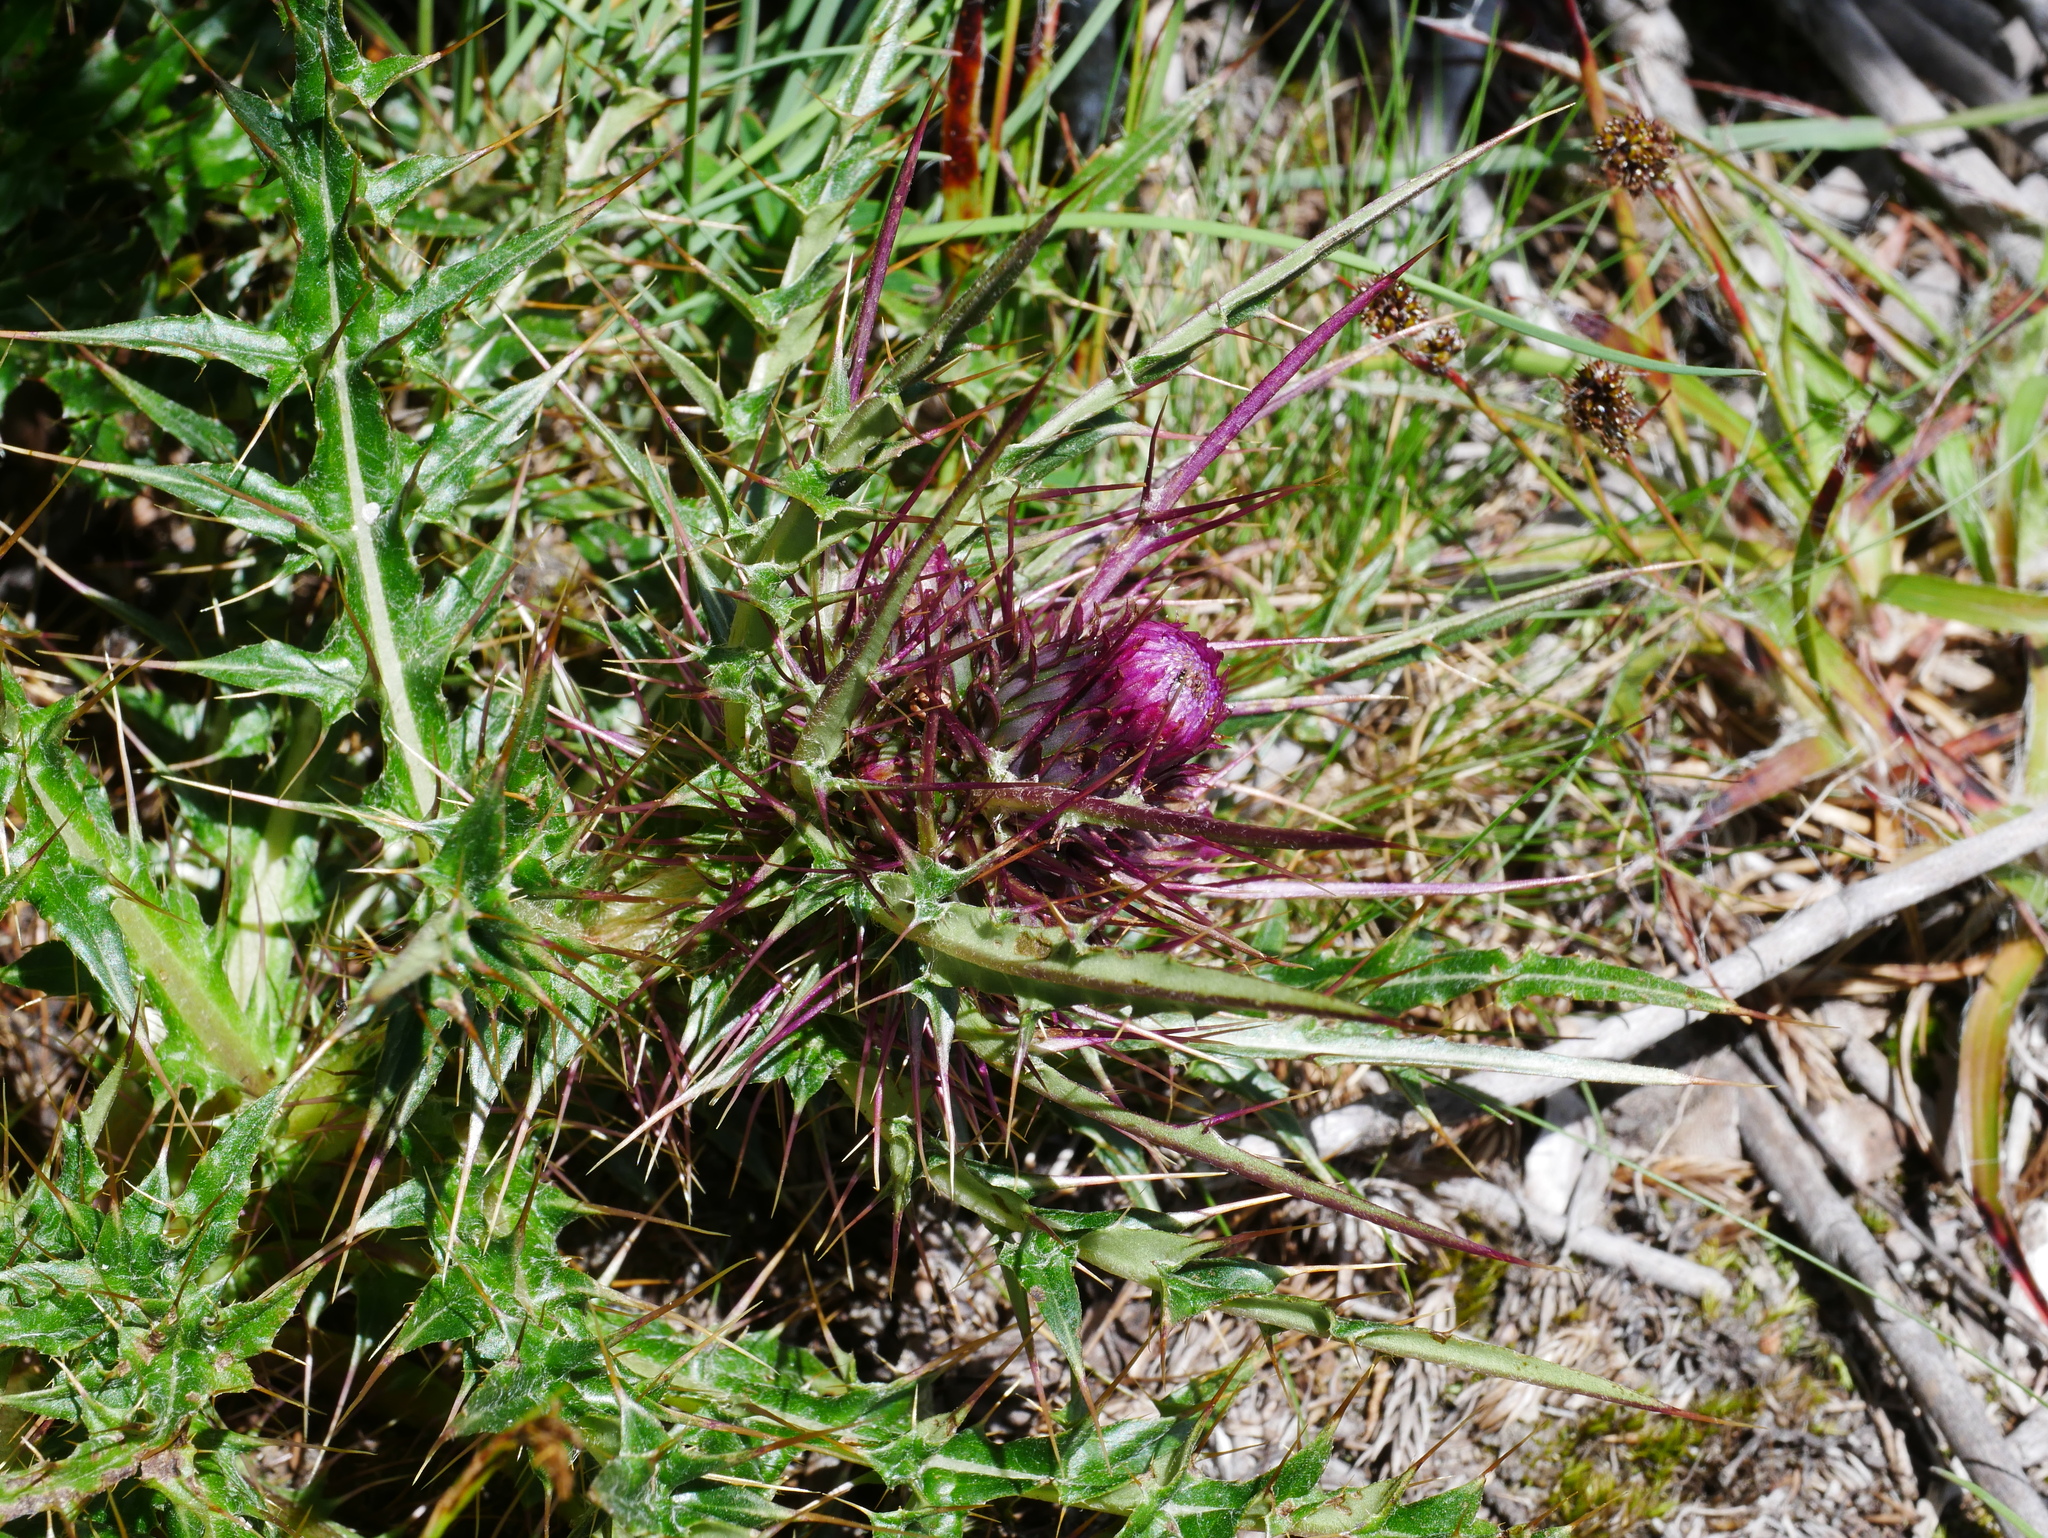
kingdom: Plantae
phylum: Tracheophyta
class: Magnoliopsida
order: Asterales
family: Asteraceae
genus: Cirsium
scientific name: Cirsium arisanense
